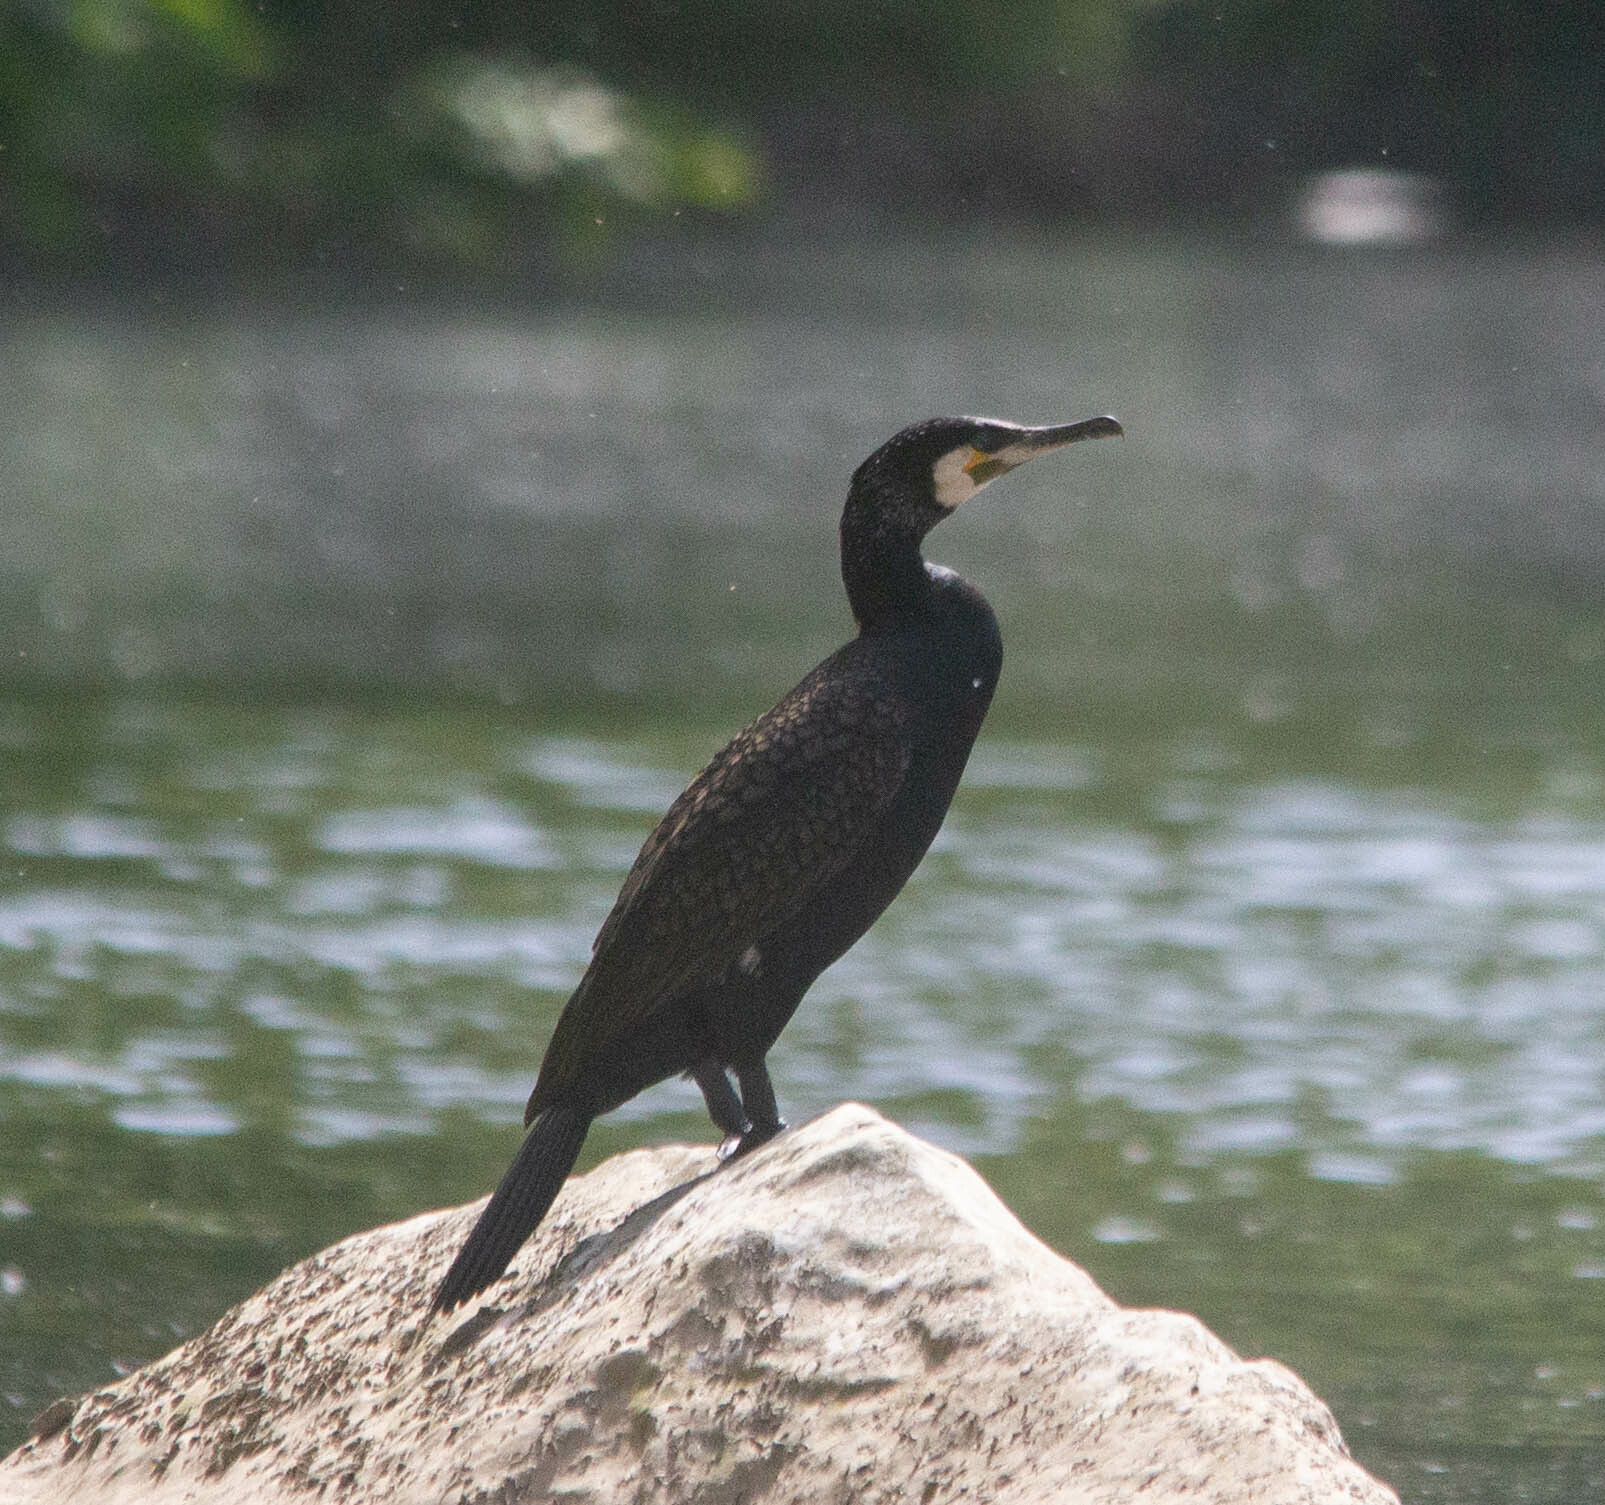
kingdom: Animalia
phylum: Chordata
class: Aves
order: Suliformes
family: Phalacrocoracidae
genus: Phalacrocorax
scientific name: Phalacrocorax carbo
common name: Great cormorant
